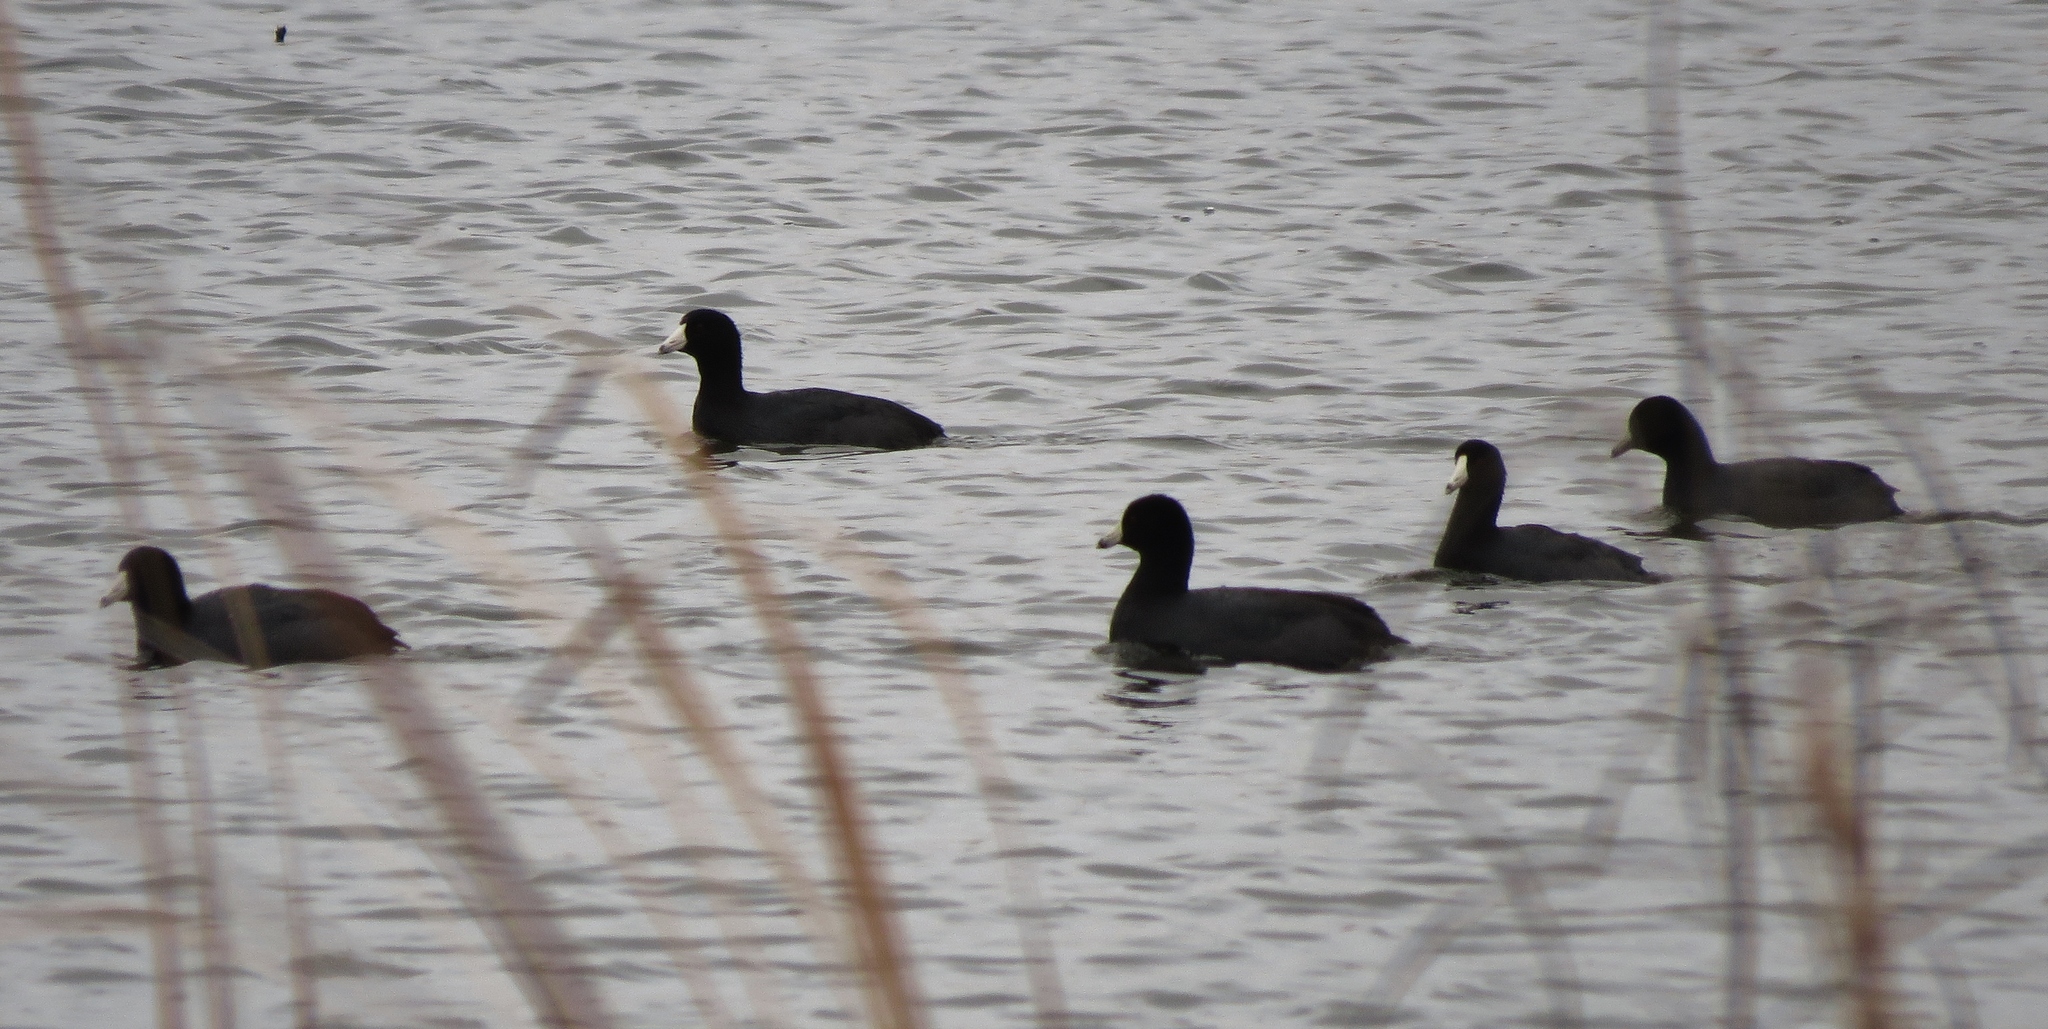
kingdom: Animalia
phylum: Chordata
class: Aves
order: Gruiformes
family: Rallidae
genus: Fulica
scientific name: Fulica americana
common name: American coot
